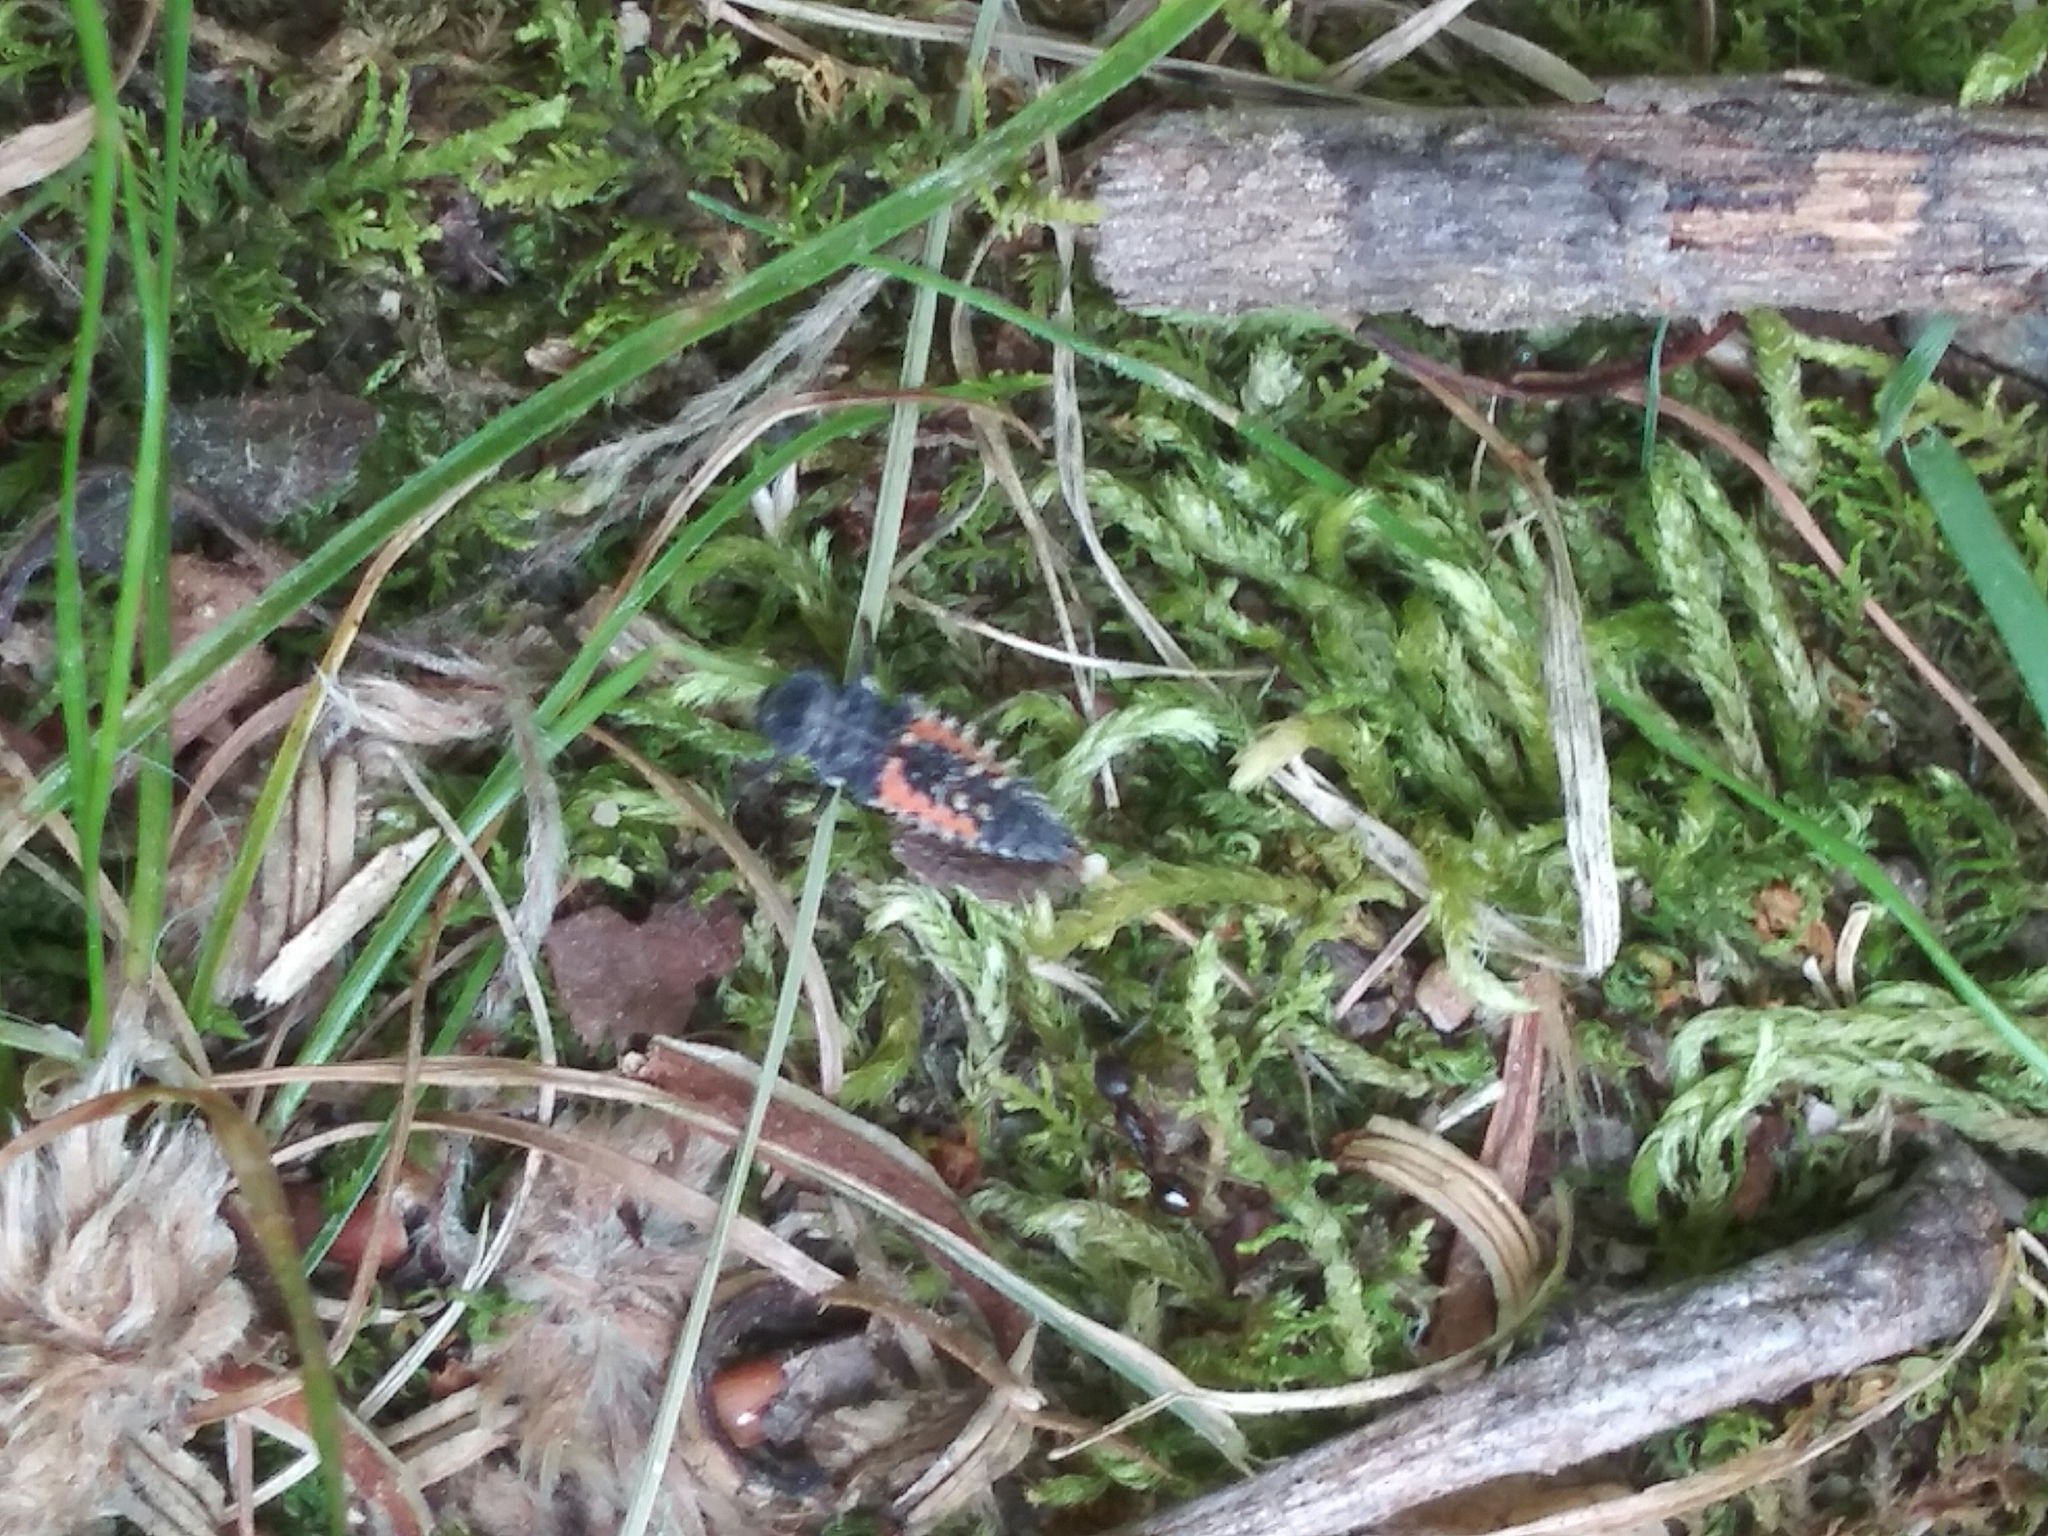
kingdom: Animalia
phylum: Arthropoda
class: Insecta
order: Coleoptera
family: Coccinellidae
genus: Harmonia
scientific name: Harmonia axyridis
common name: Harlequin ladybird
